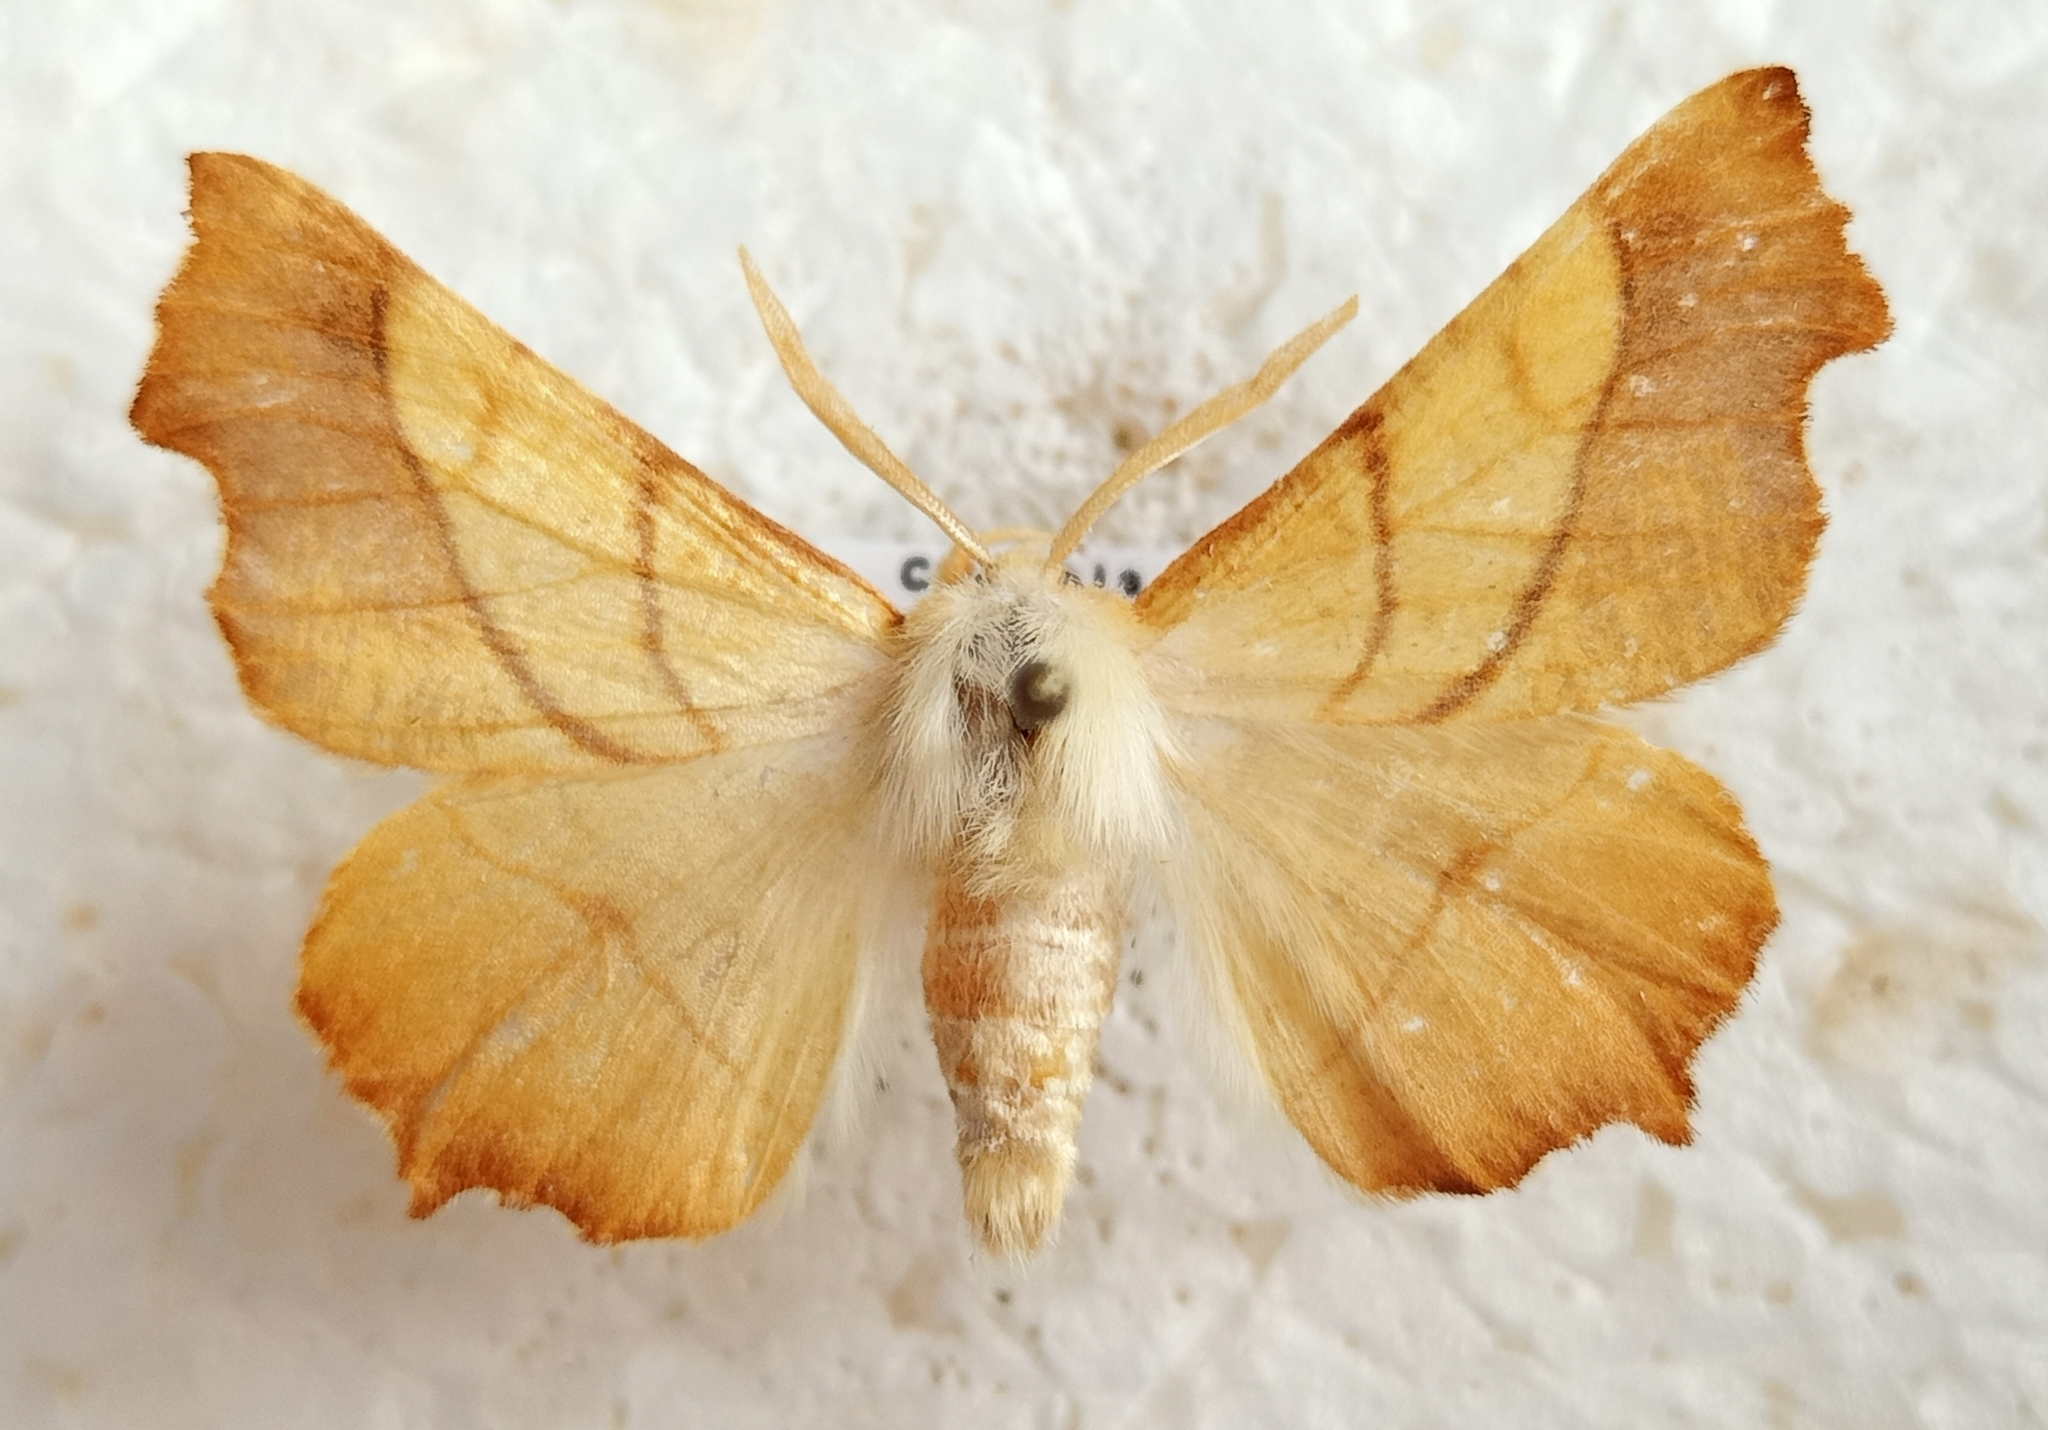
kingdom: Animalia
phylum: Arthropoda
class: Insecta
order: Lepidoptera
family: Geometridae
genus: Ennomos
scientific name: Ennomos fuscantaria
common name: Dusky thorn
